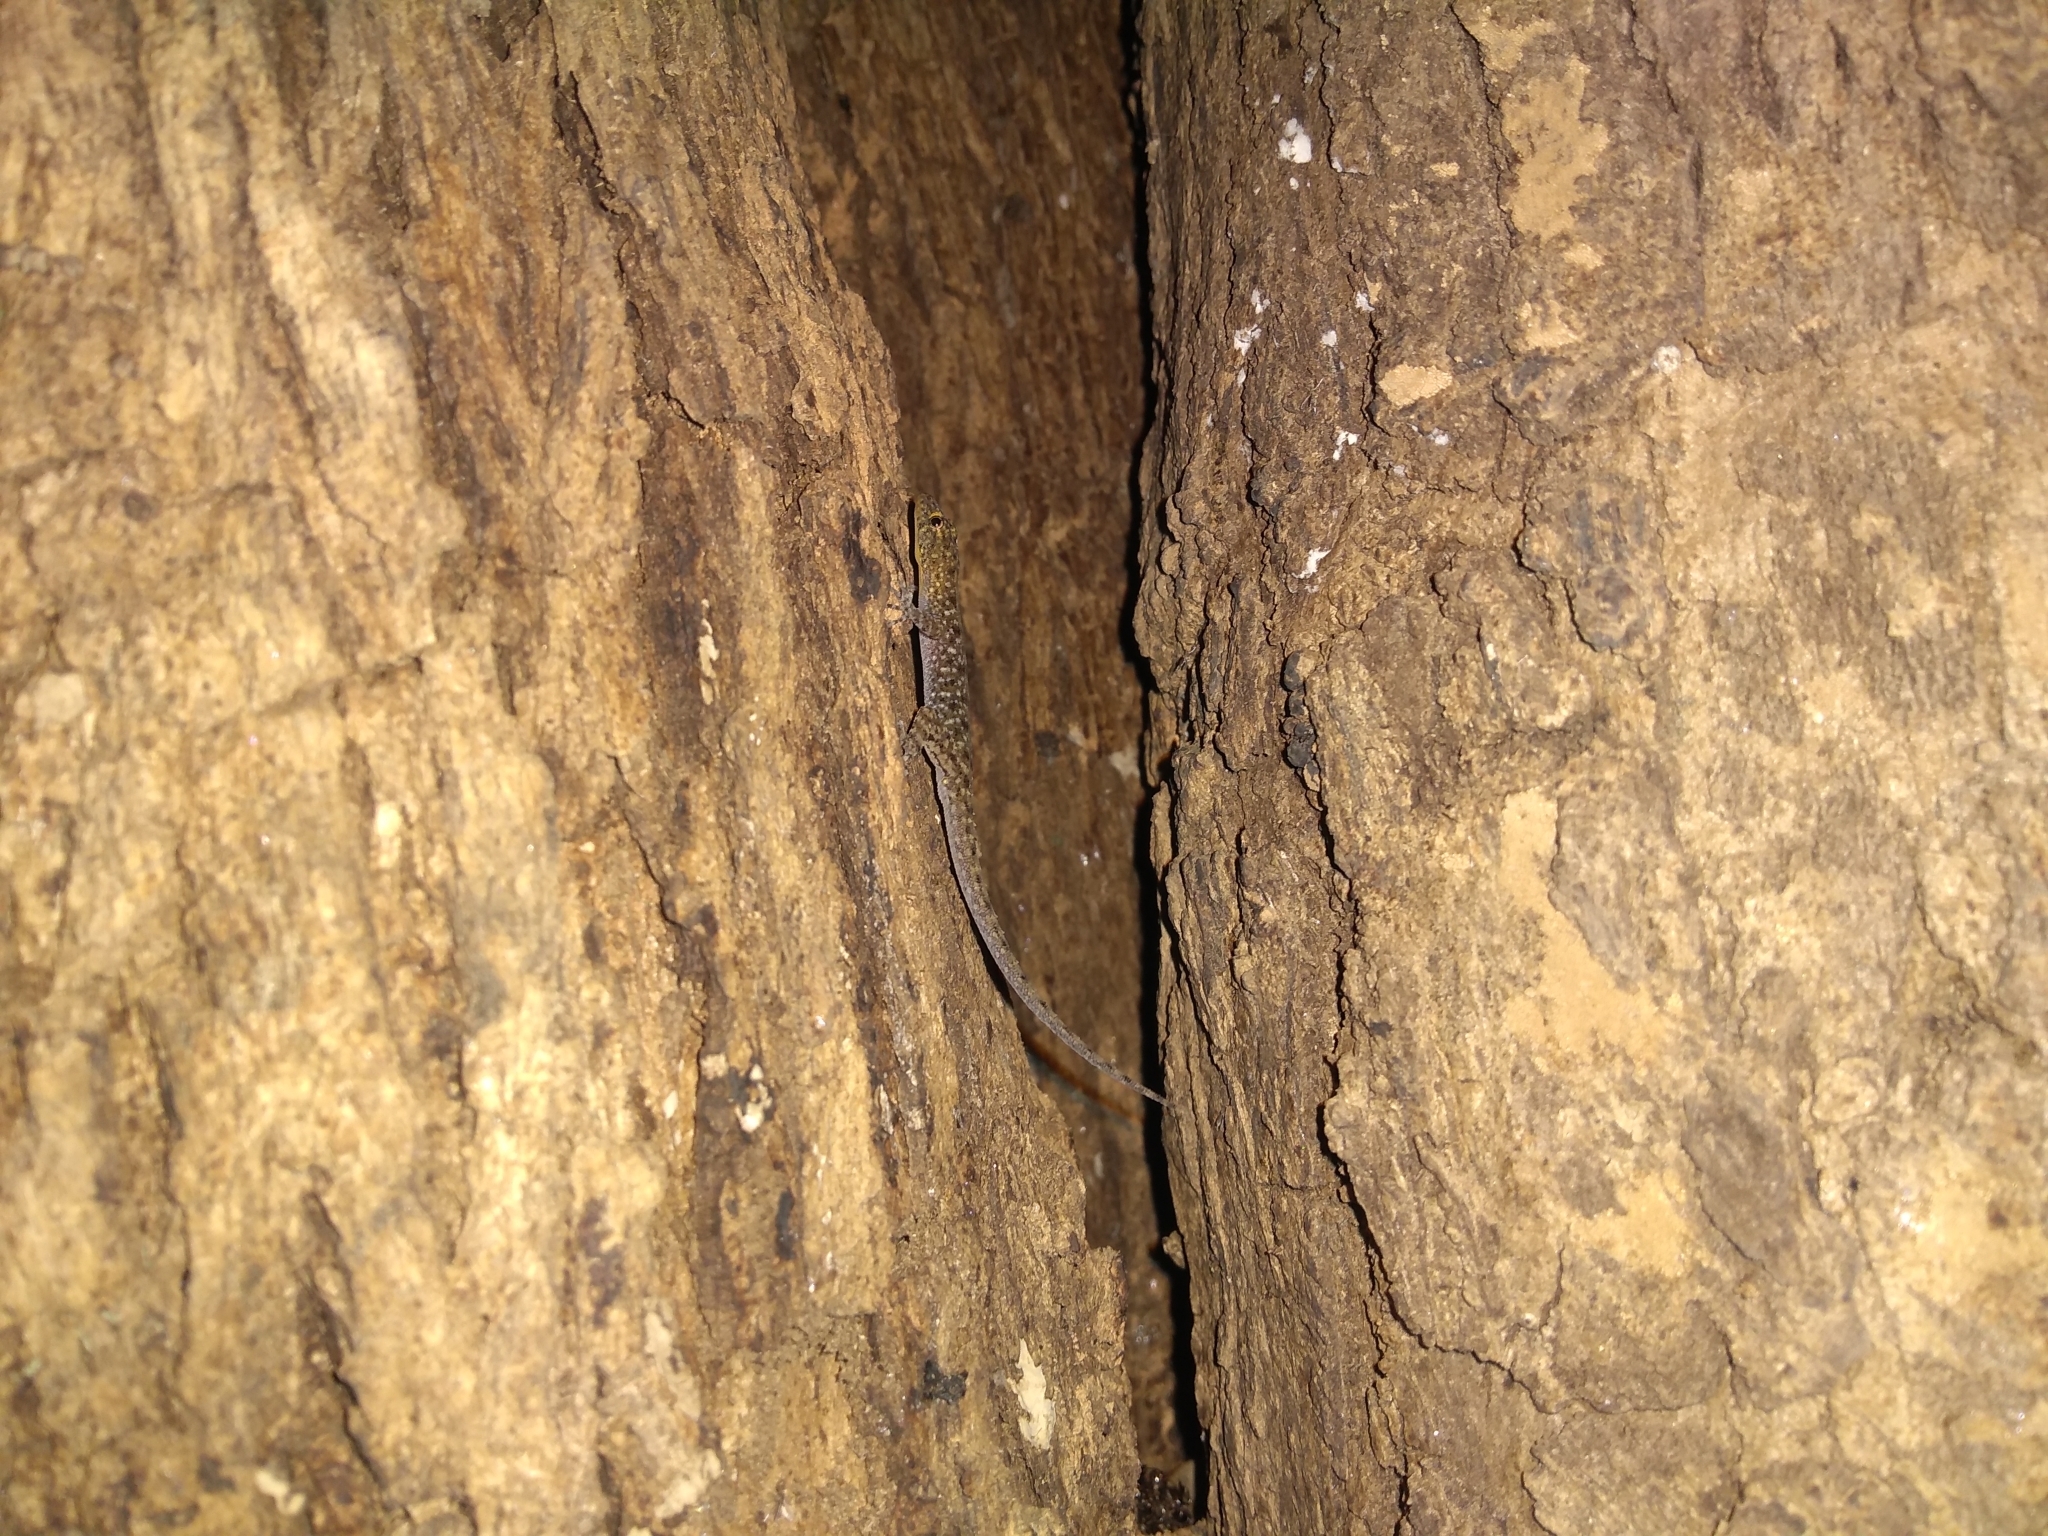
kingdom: Animalia
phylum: Chordata
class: Squamata
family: Gekkonidae
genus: Cnemaspis
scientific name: Cnemaspis mysoriensis
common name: Mysore day gecko
